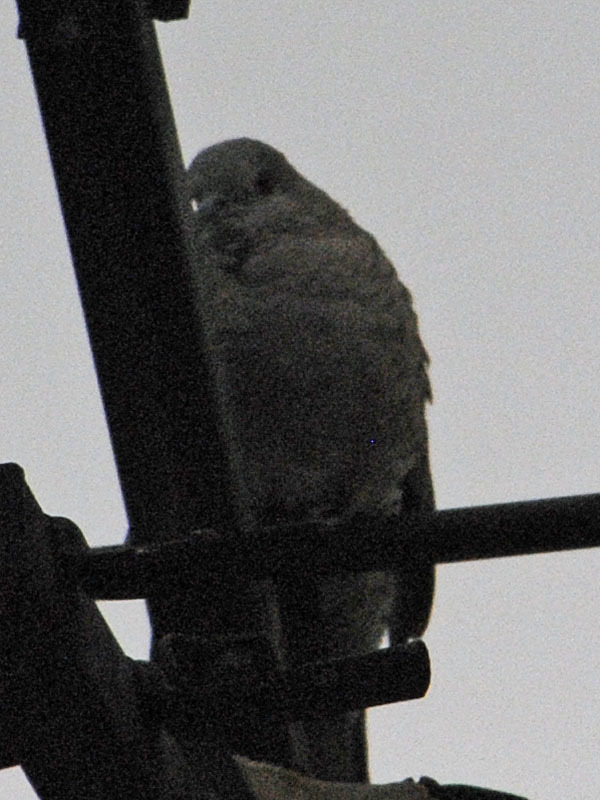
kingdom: Animalia
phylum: Chordata
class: Aves
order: Columbiformes
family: Columbidae
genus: Columbina
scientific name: Columbina inca
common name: Inca dove
